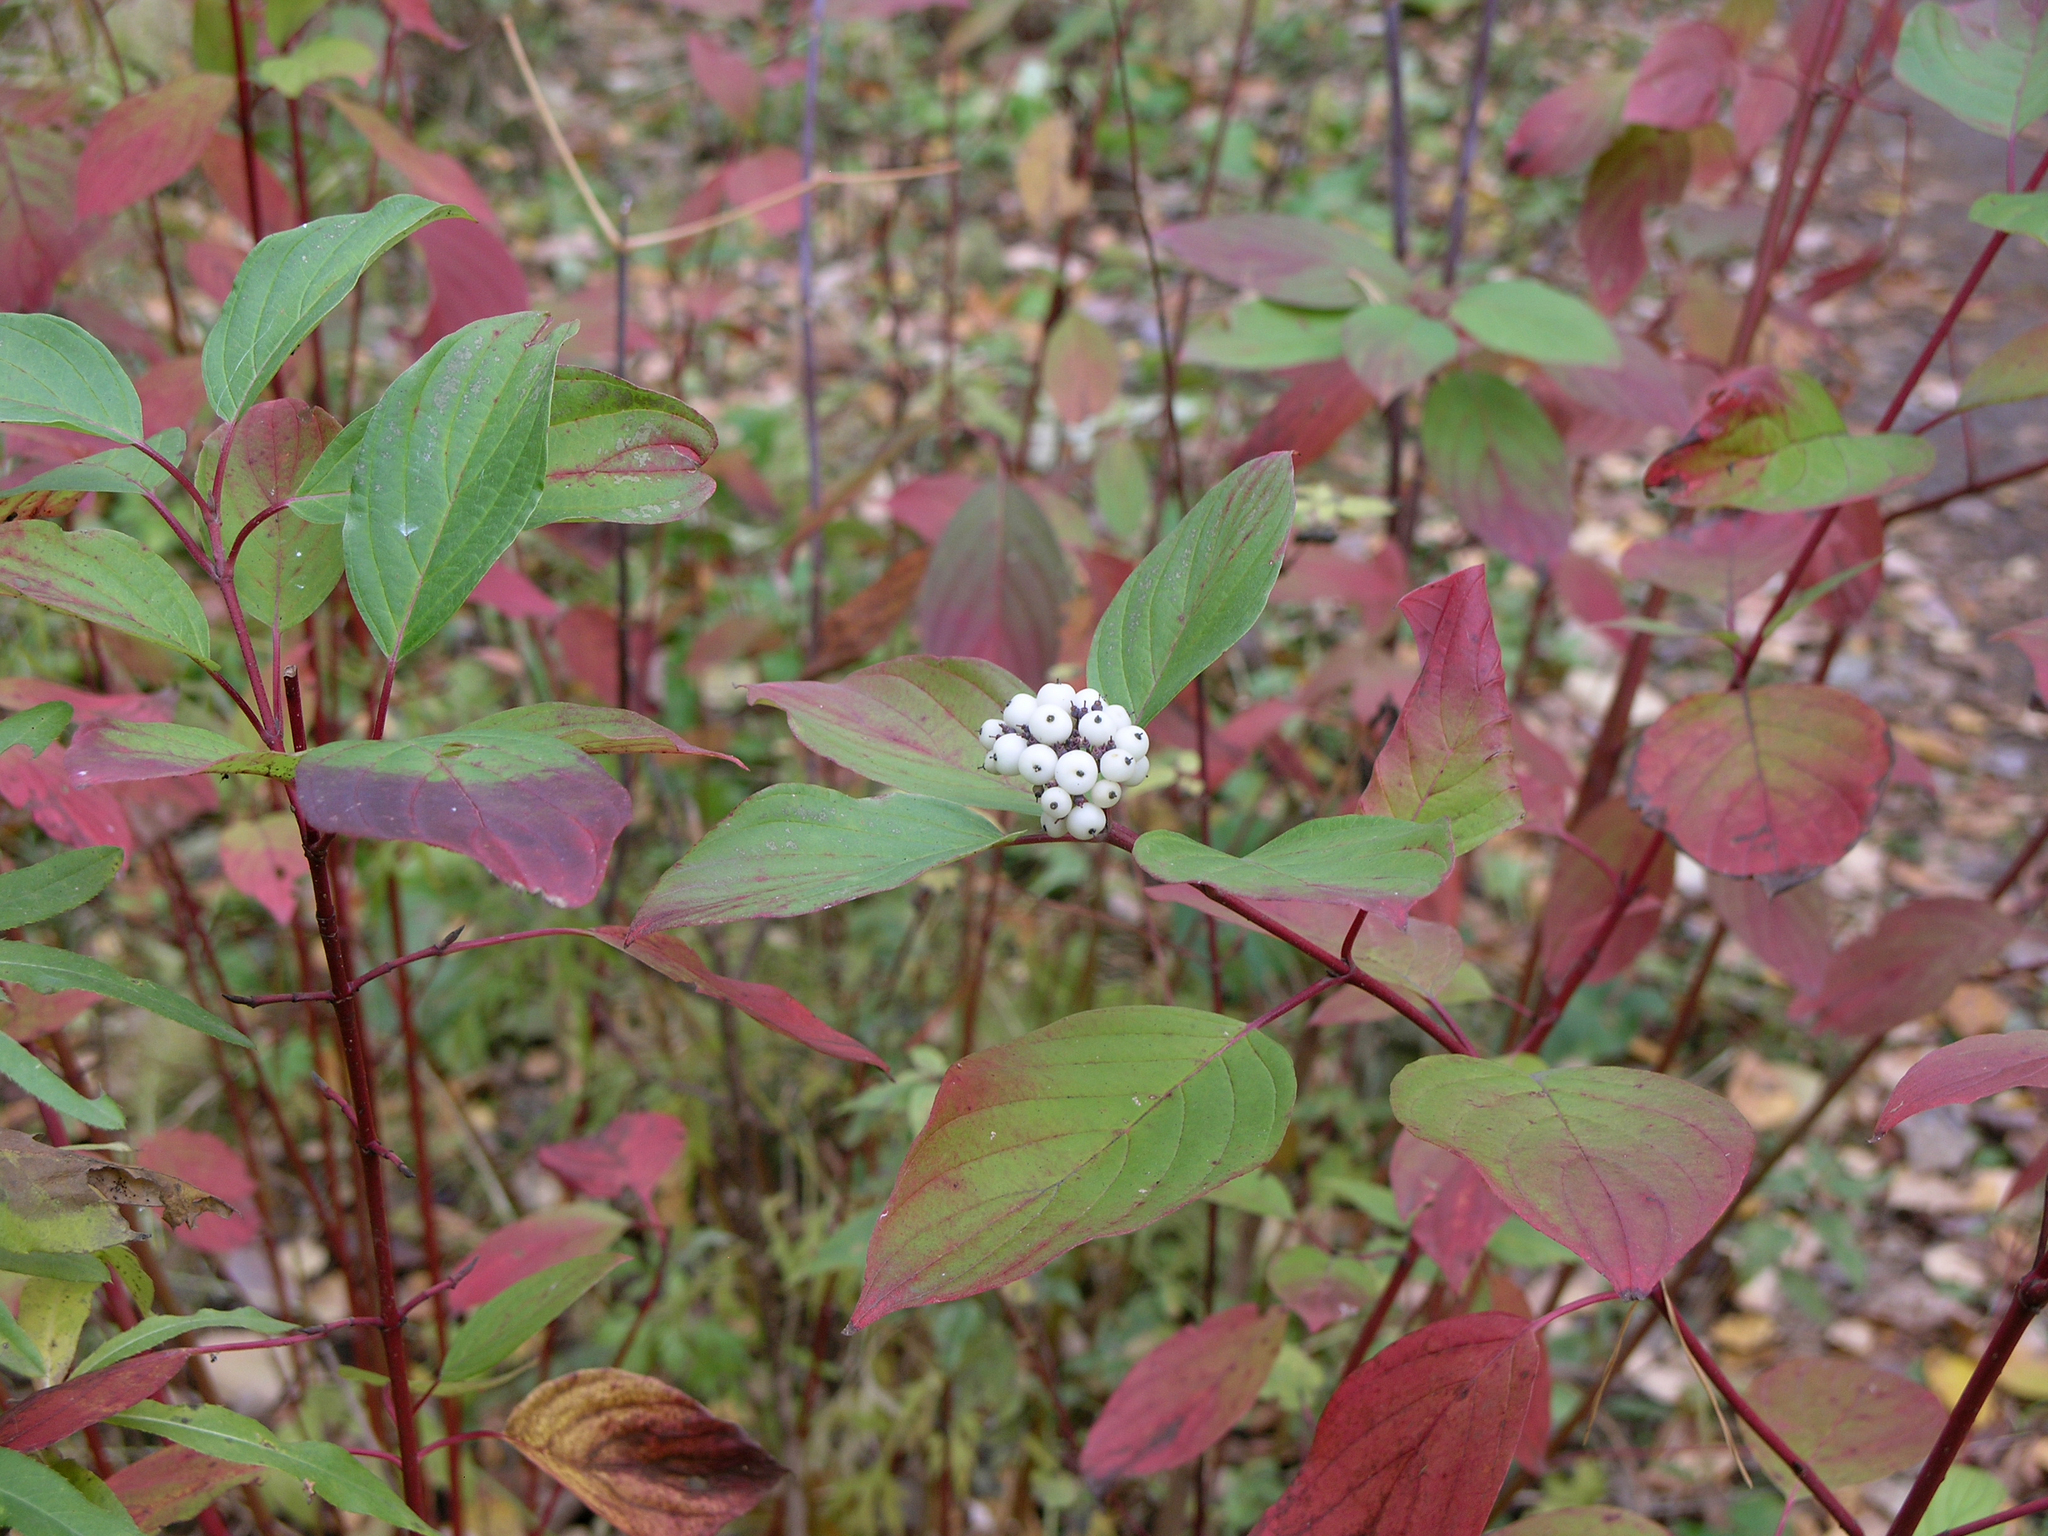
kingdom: Plantae
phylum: Tracheophyta
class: Magnoliopsida
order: Cornales
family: Cornaceae
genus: Cornus
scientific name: Cornus alba
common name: White dogwood
